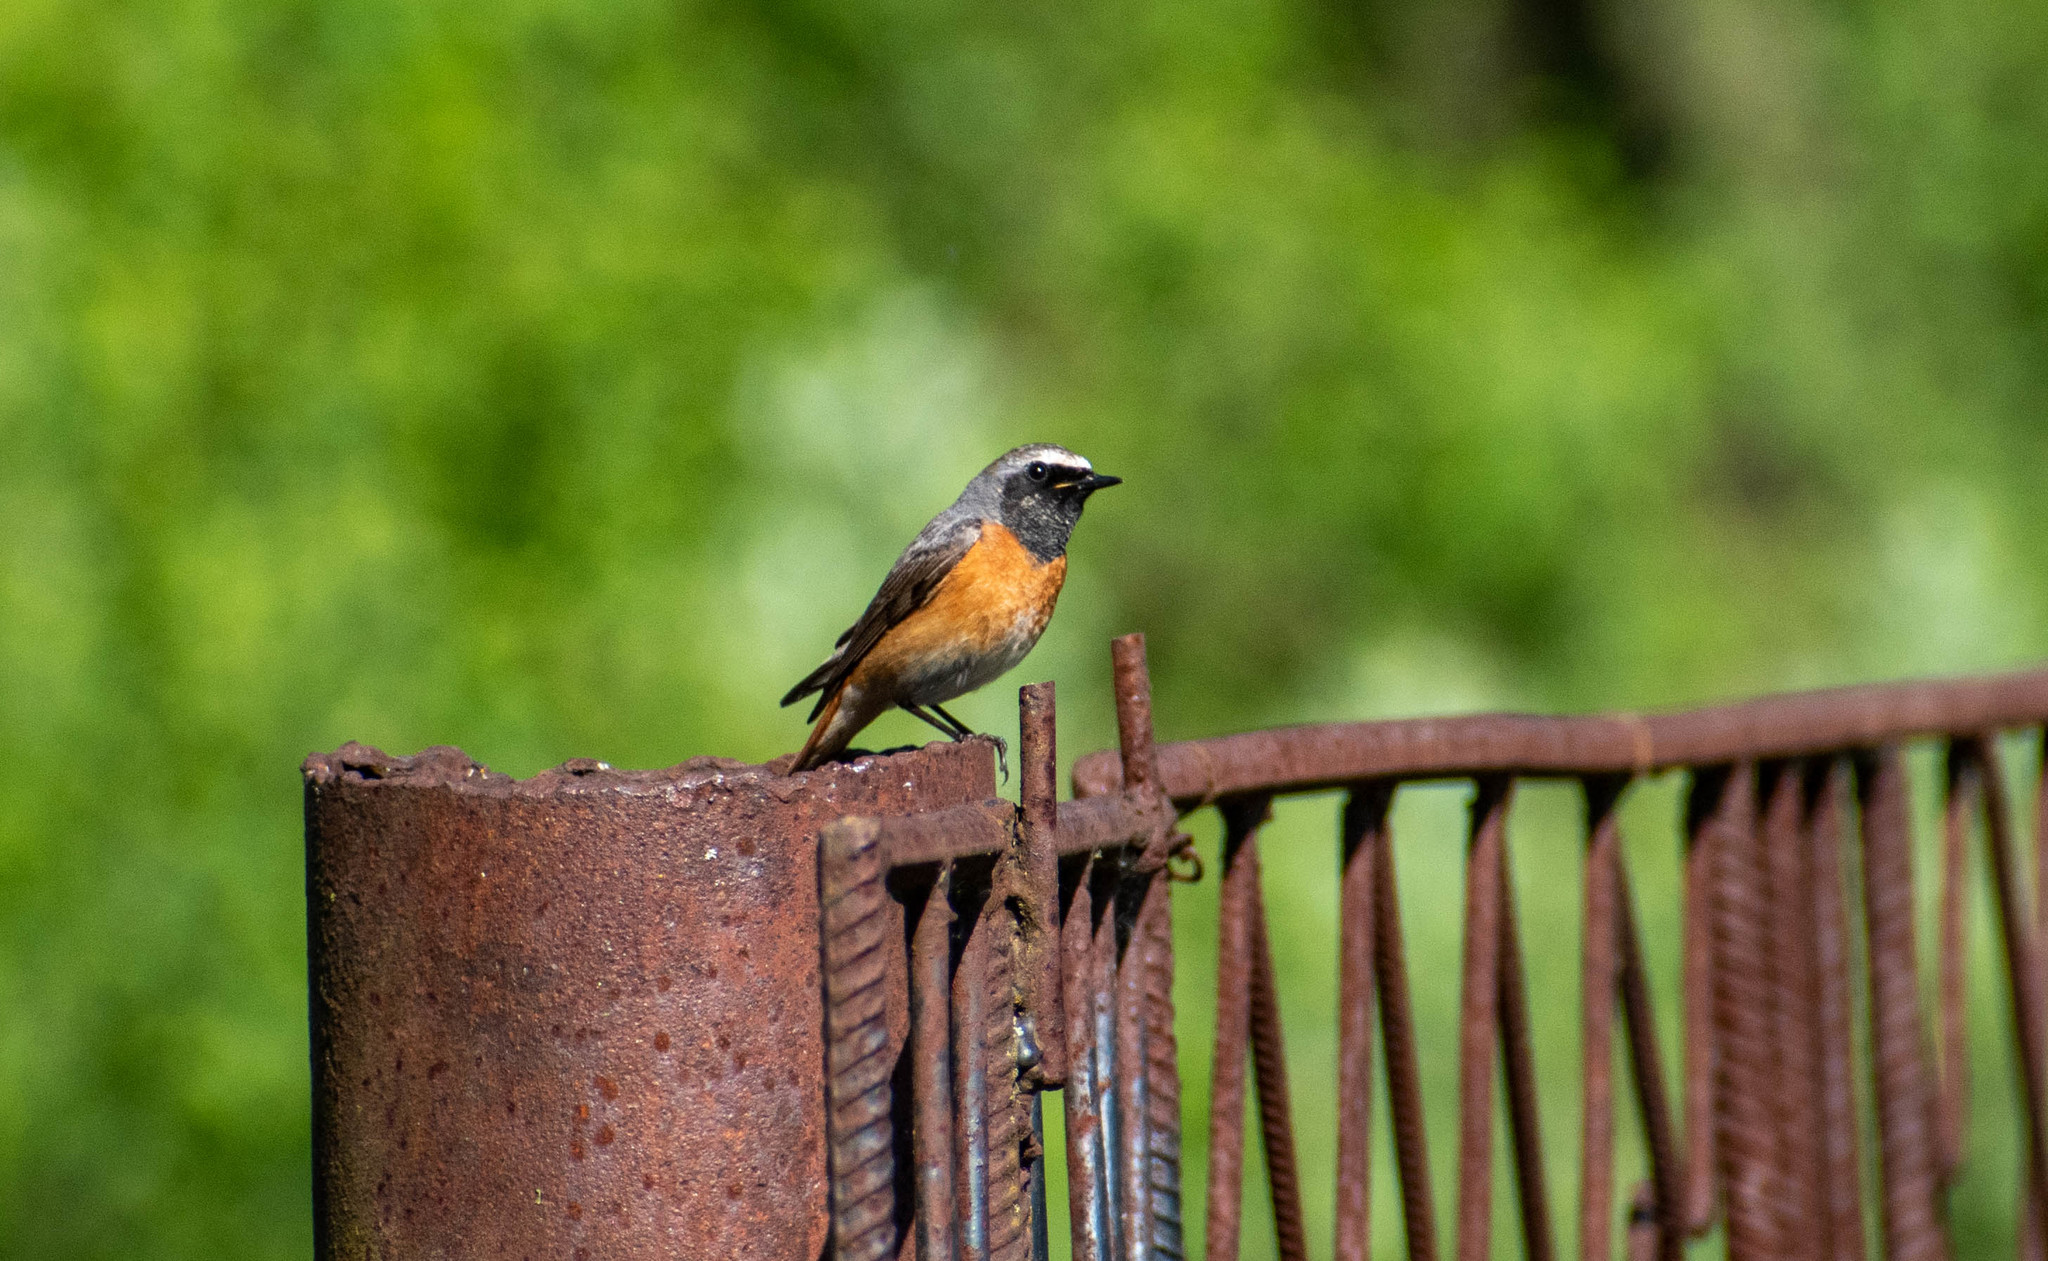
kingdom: Animalia
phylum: Chordata
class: Aves
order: Passeriformes
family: Muscicapidae
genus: Phoenicurus
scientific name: Phoenicurus phoenicurus
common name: Common redstart
